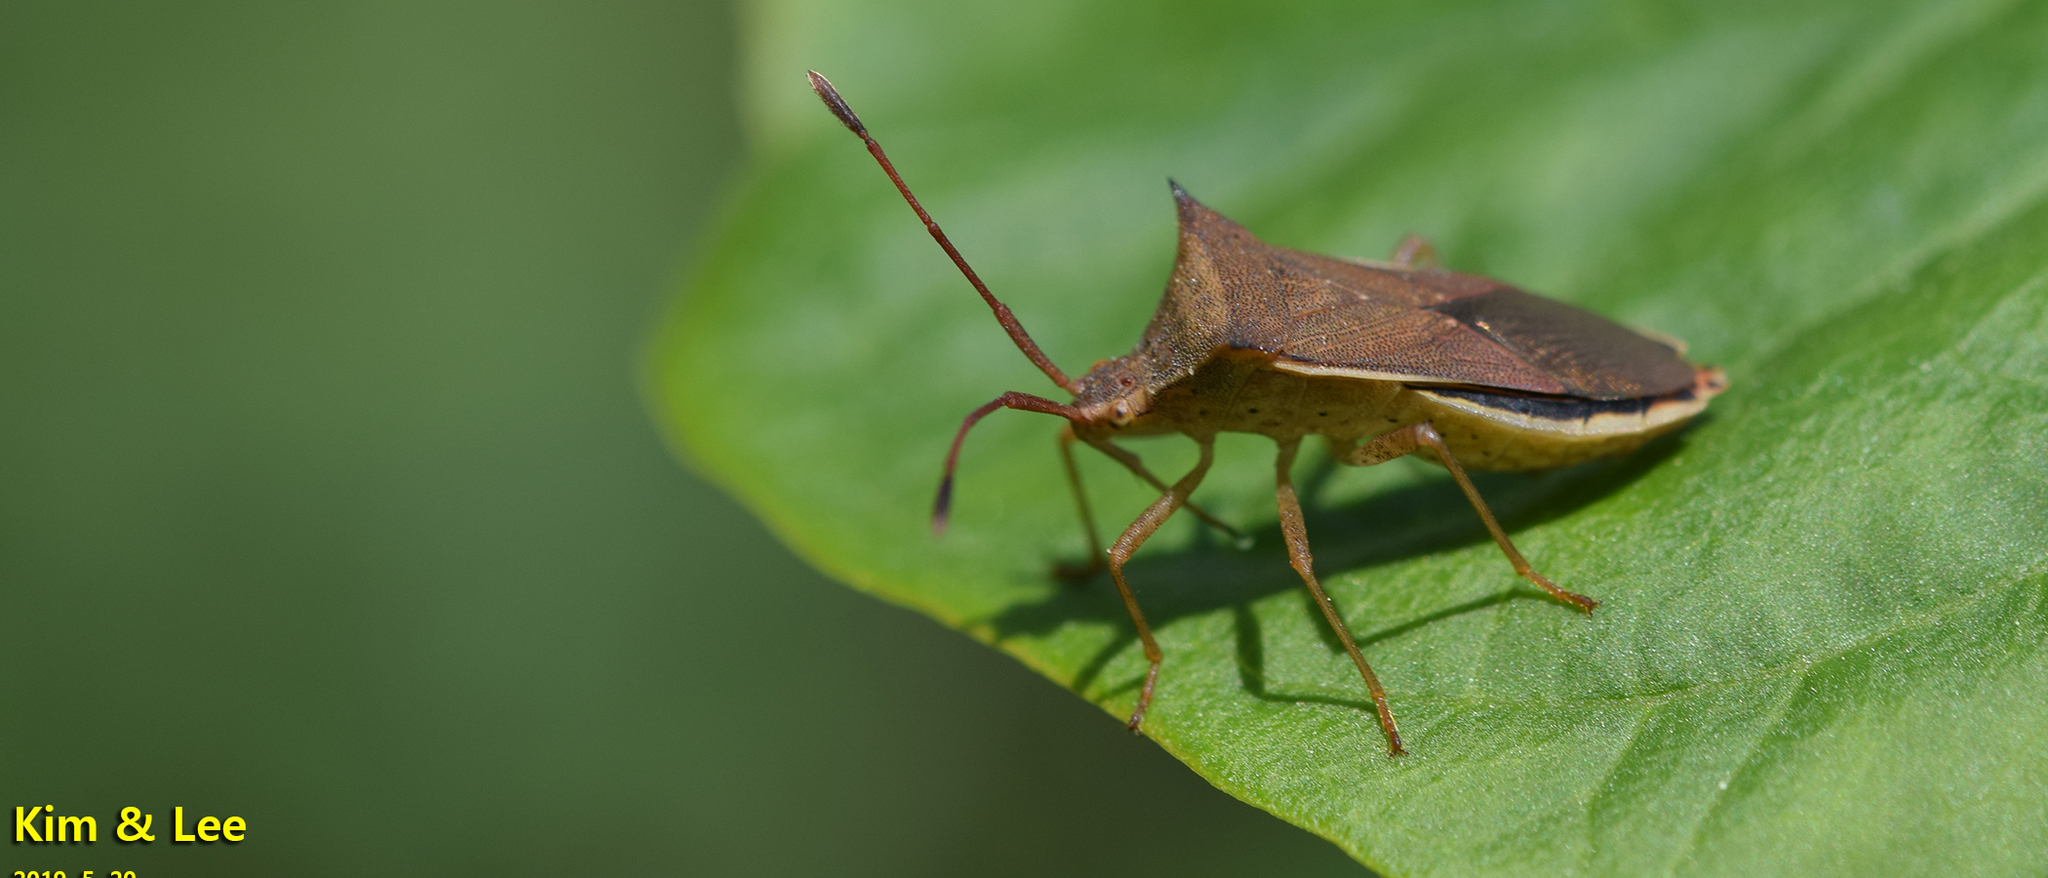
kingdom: Animalia
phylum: Arthropoda
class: Insecta
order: Hemiptera
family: Coreidae
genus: Cletus
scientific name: Cletus schmidti
